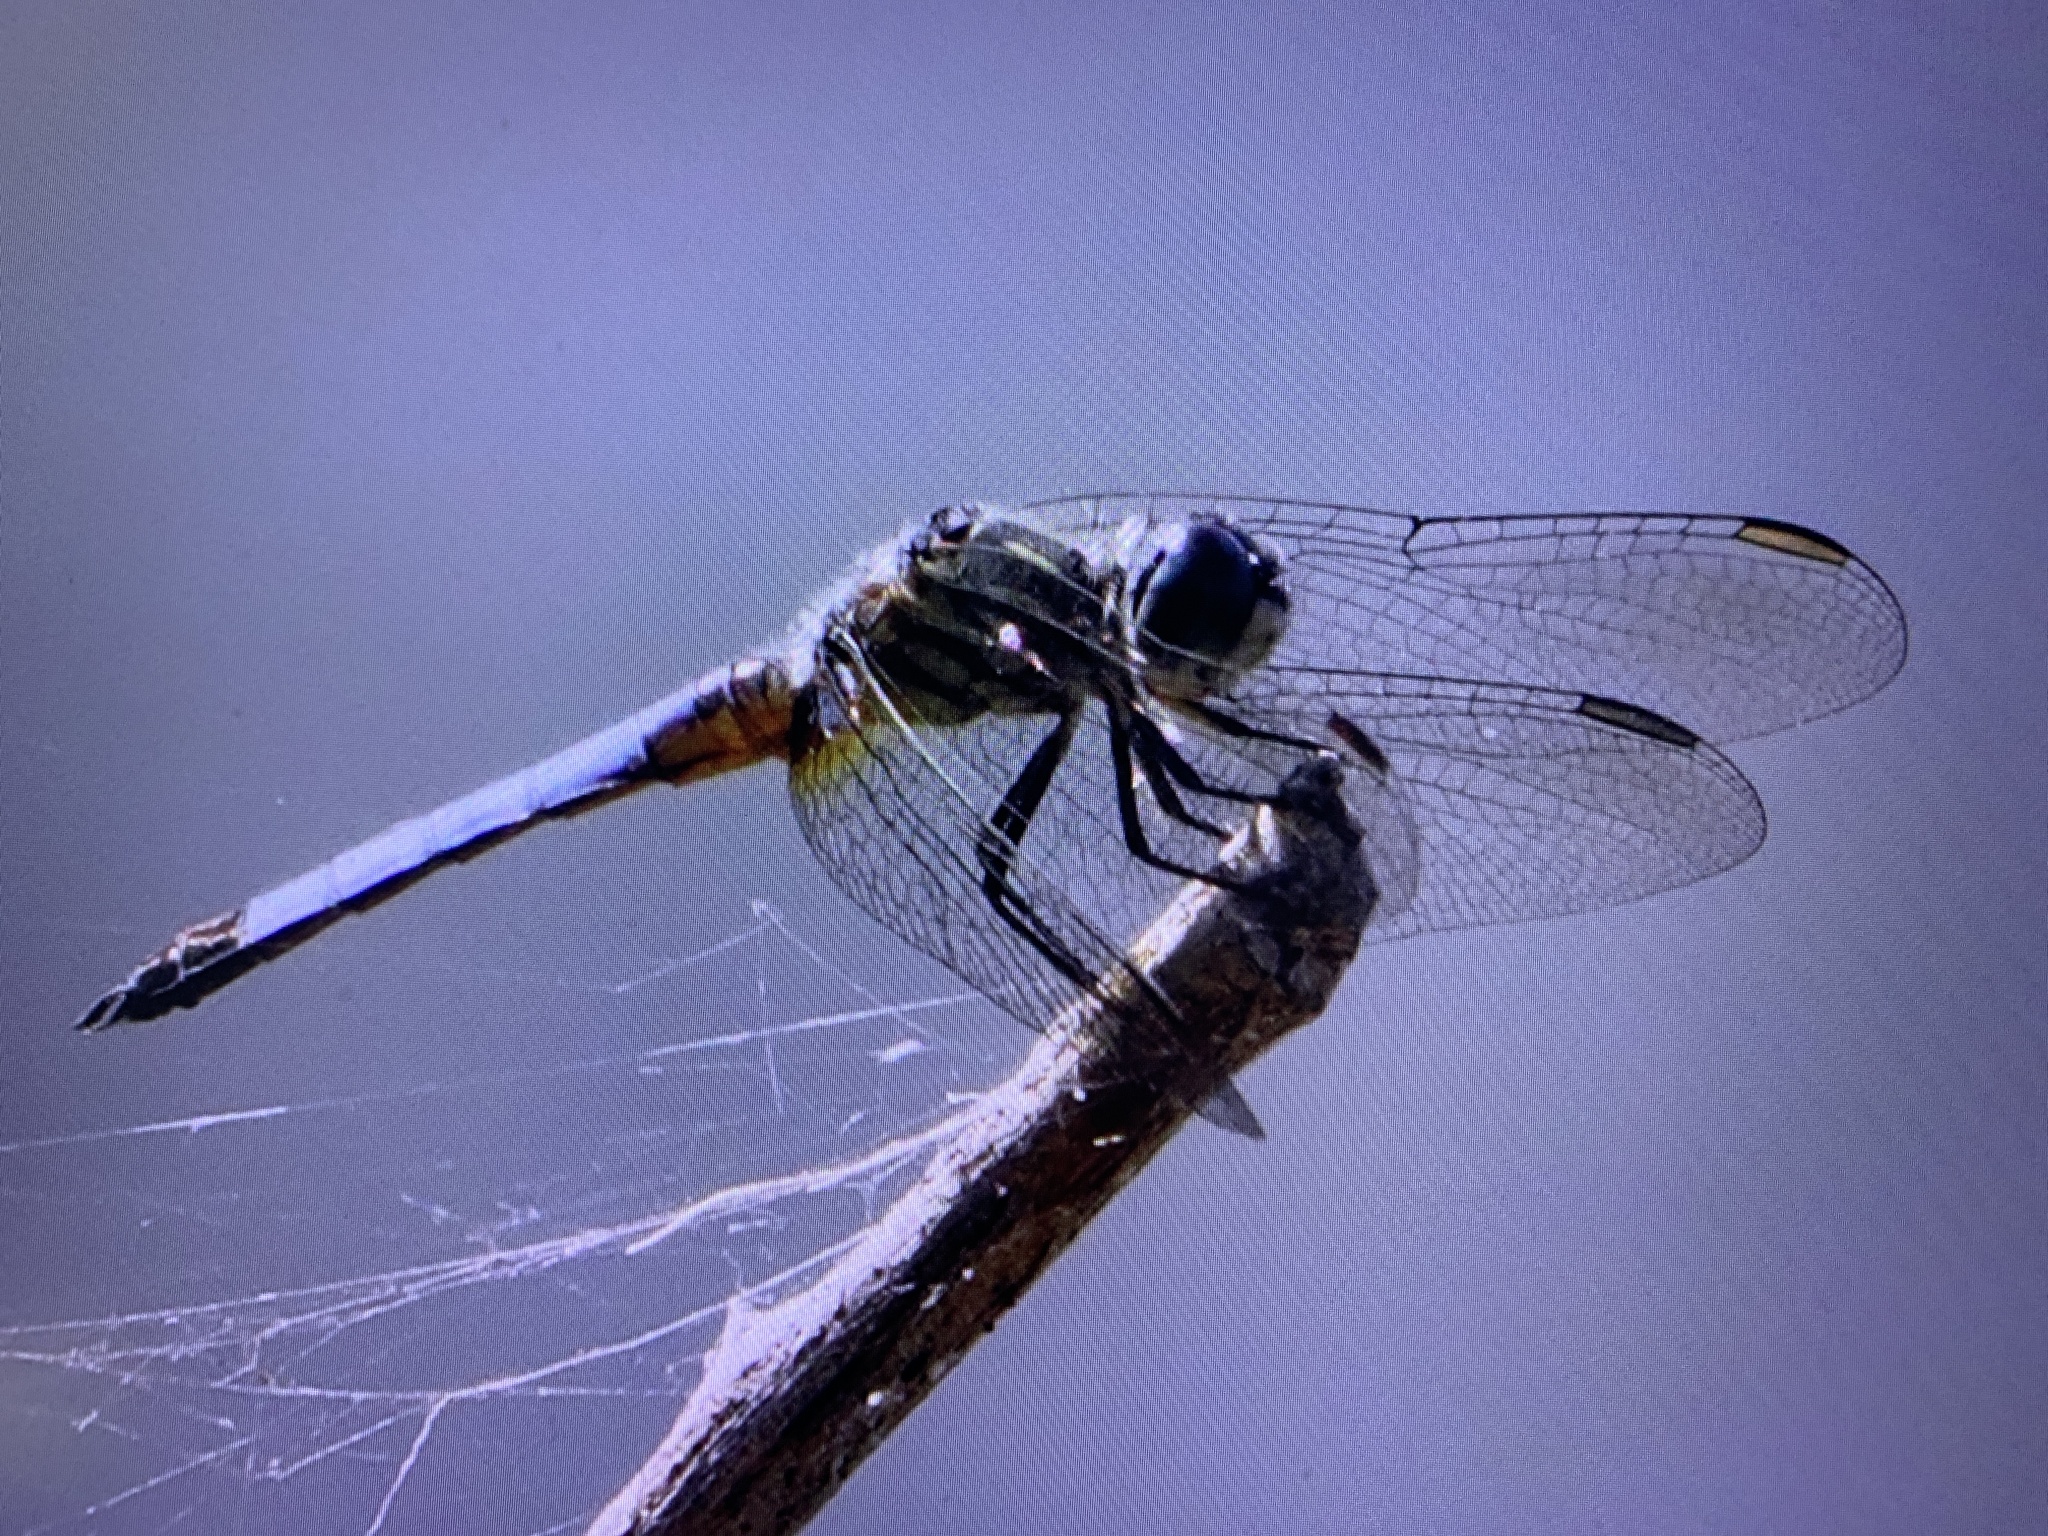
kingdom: Animalia
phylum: Arthropoda
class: Insecta
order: Odonata
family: Libellulidae
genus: Pachydiplax
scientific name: Pachydiplax longipennis
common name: Blue dasher
